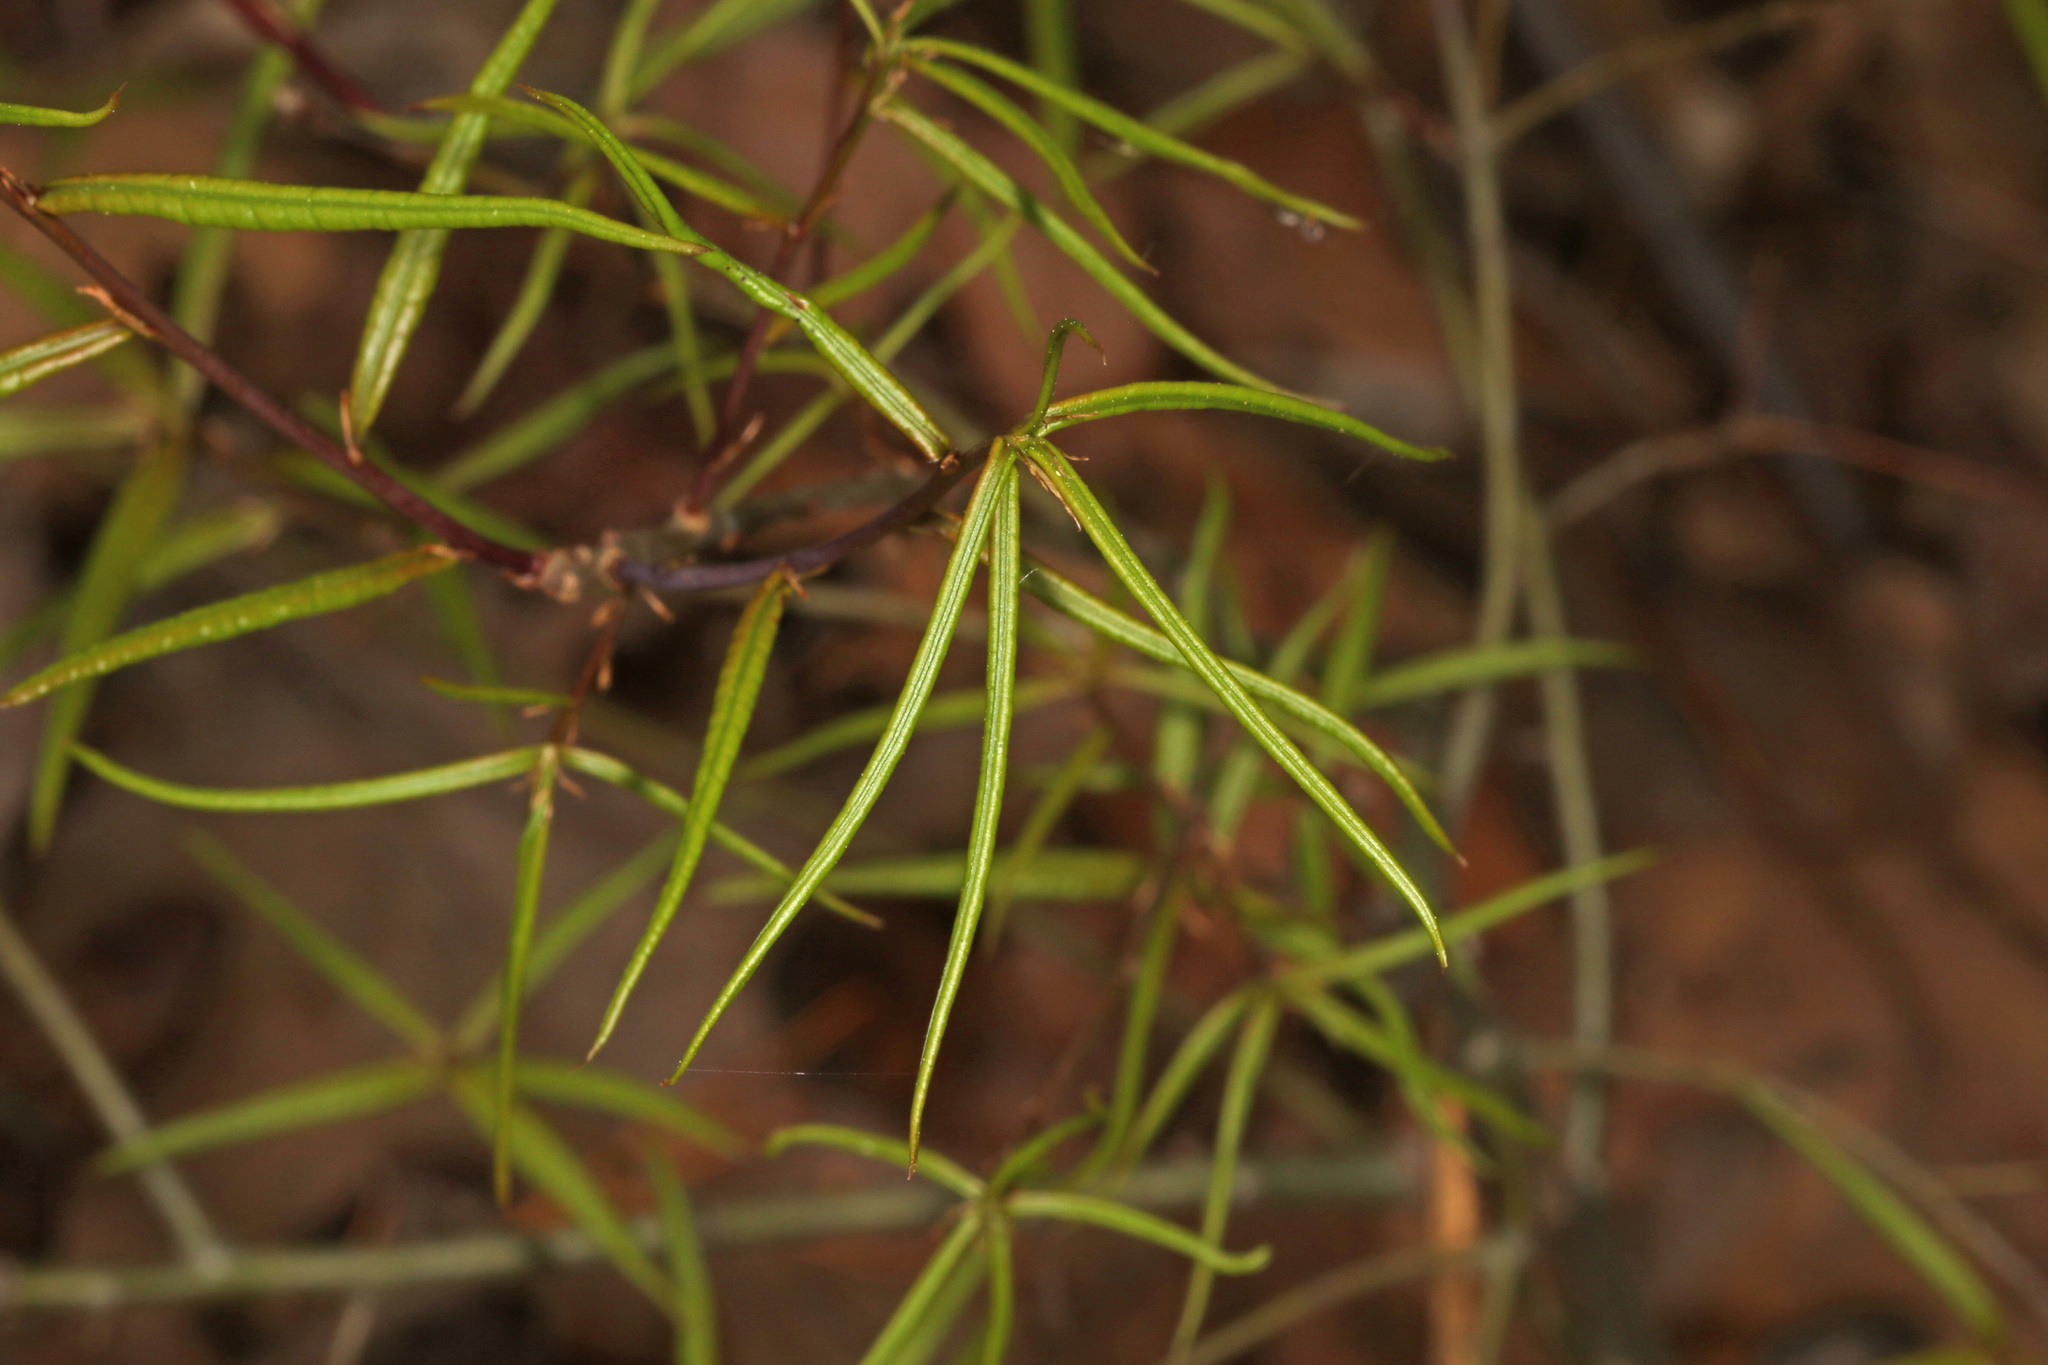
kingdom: Plantae
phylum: Tracheophyta
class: Magnoliopsida
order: Fagales
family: Fagaceae
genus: Quercus
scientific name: Quercus phellos
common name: Willow oak
